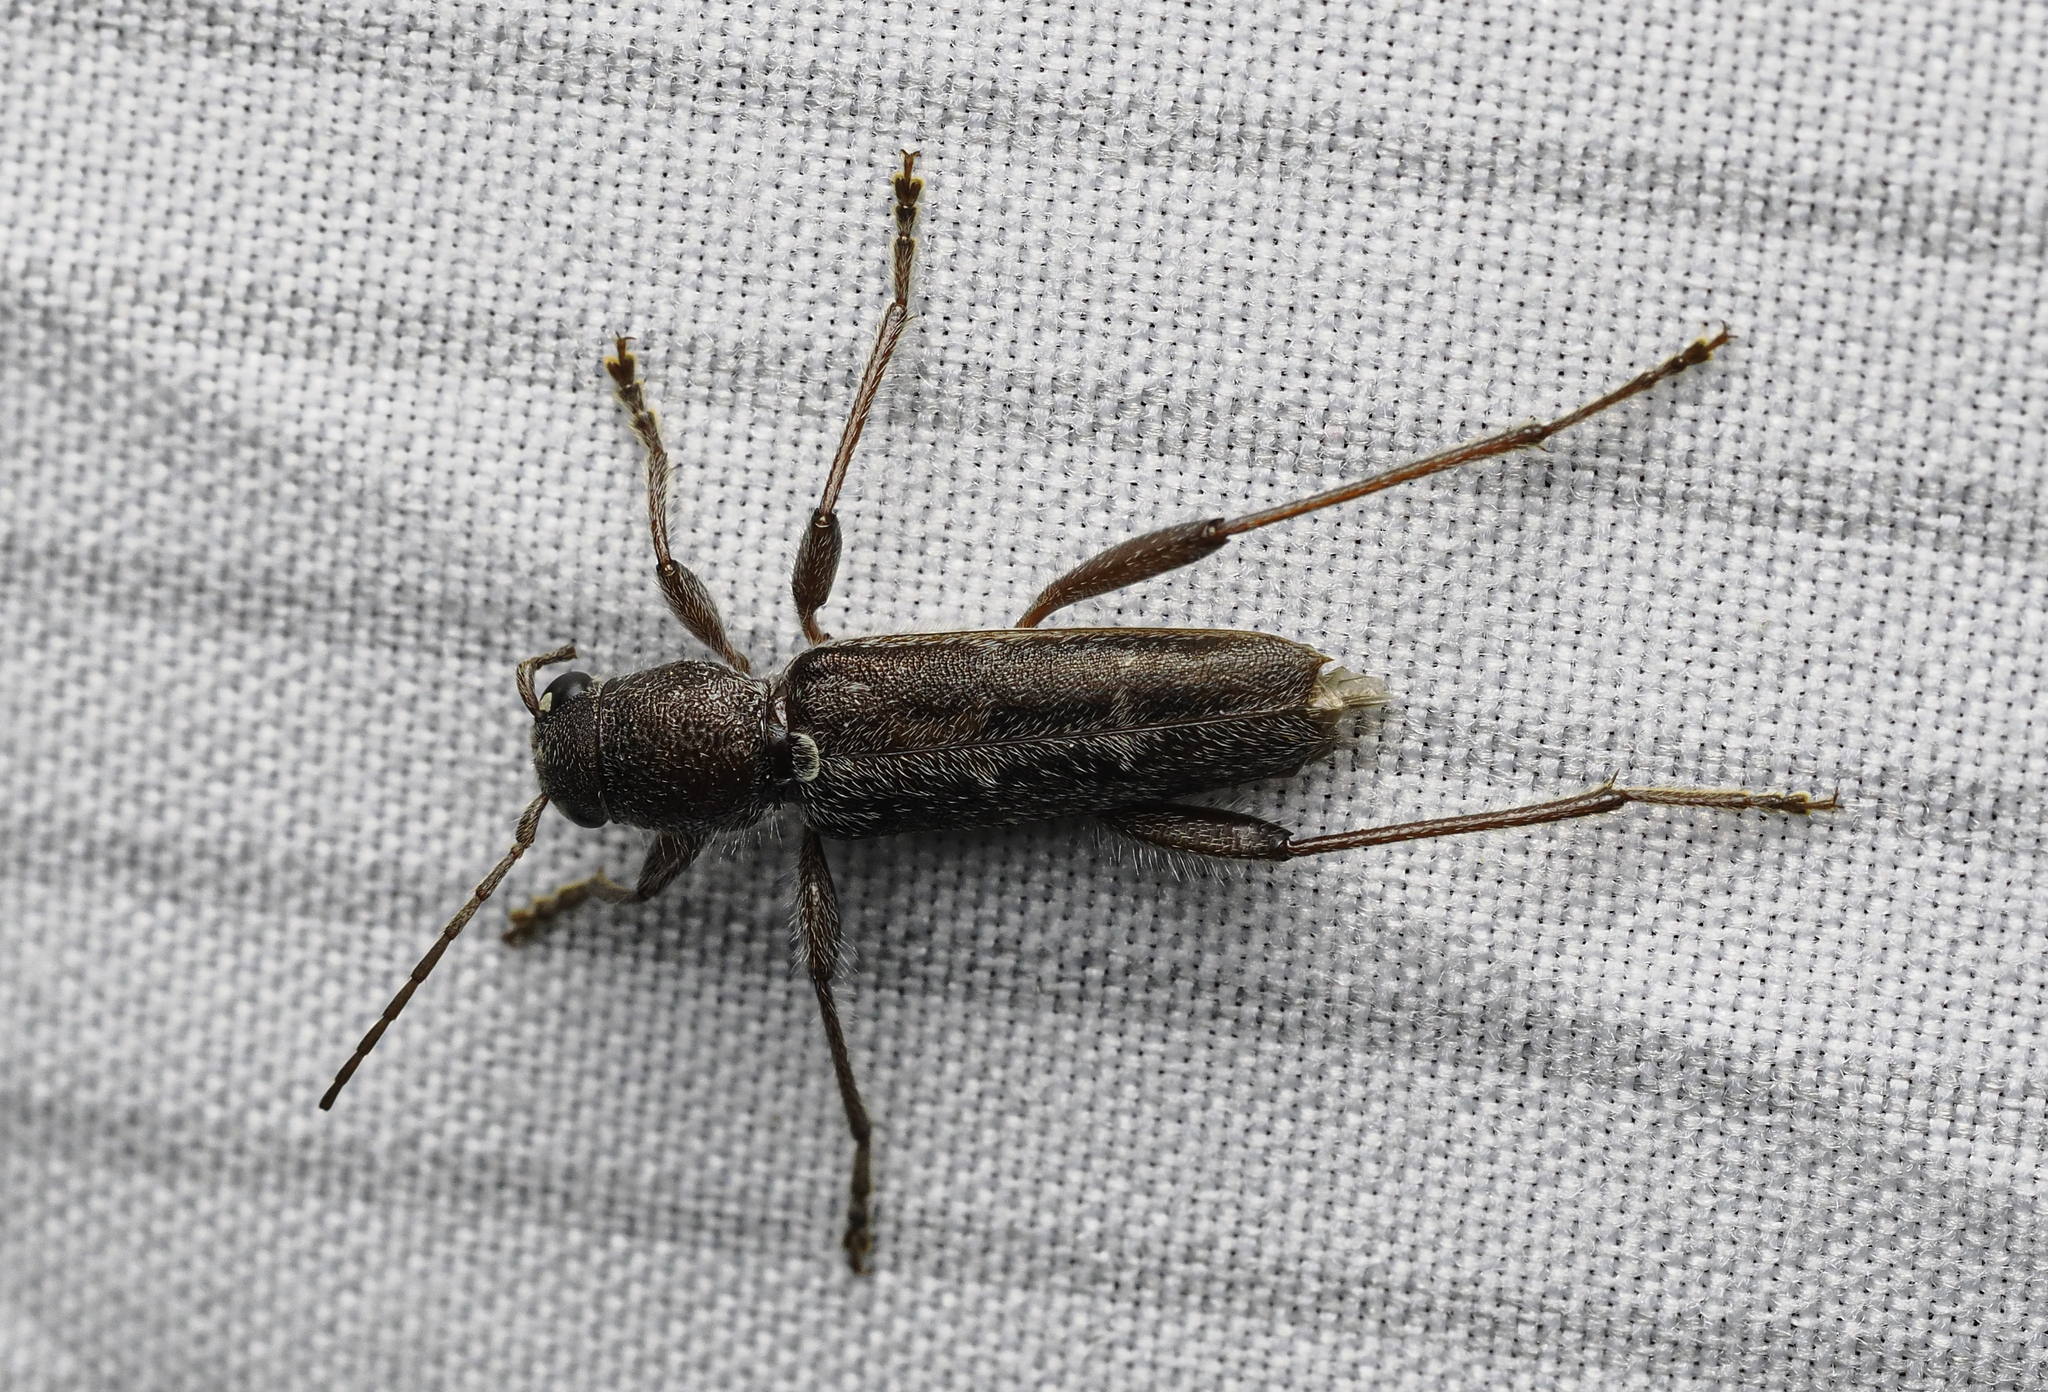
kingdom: Animalia
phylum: Arthropoda
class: Insecta
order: Coleoptera
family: Cerambycidae
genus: Xylotrechus
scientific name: Xylotrechus sagittatus
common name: Arrowhead borer
